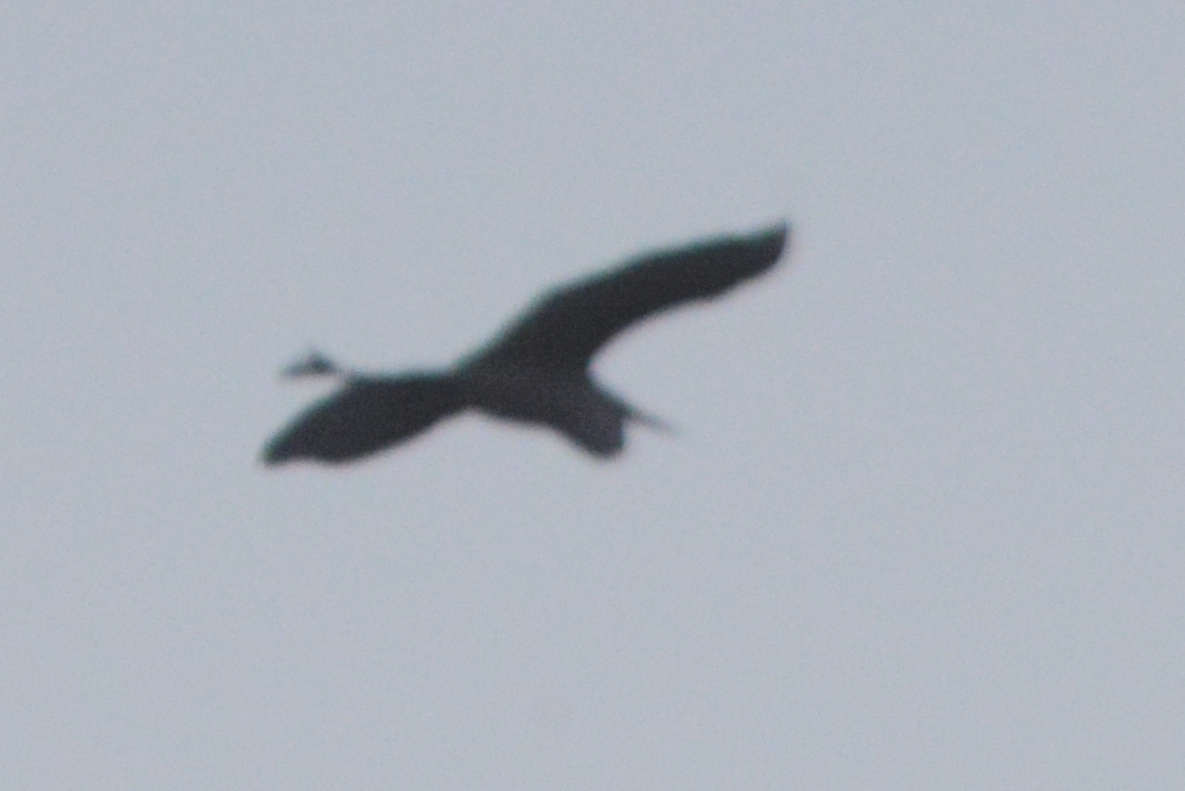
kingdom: Animalia
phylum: Chordata
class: Aves
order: Pelecaniformes
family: Ardeidae
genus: Ardea
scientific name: Ardea herodias
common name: Great blue heron
